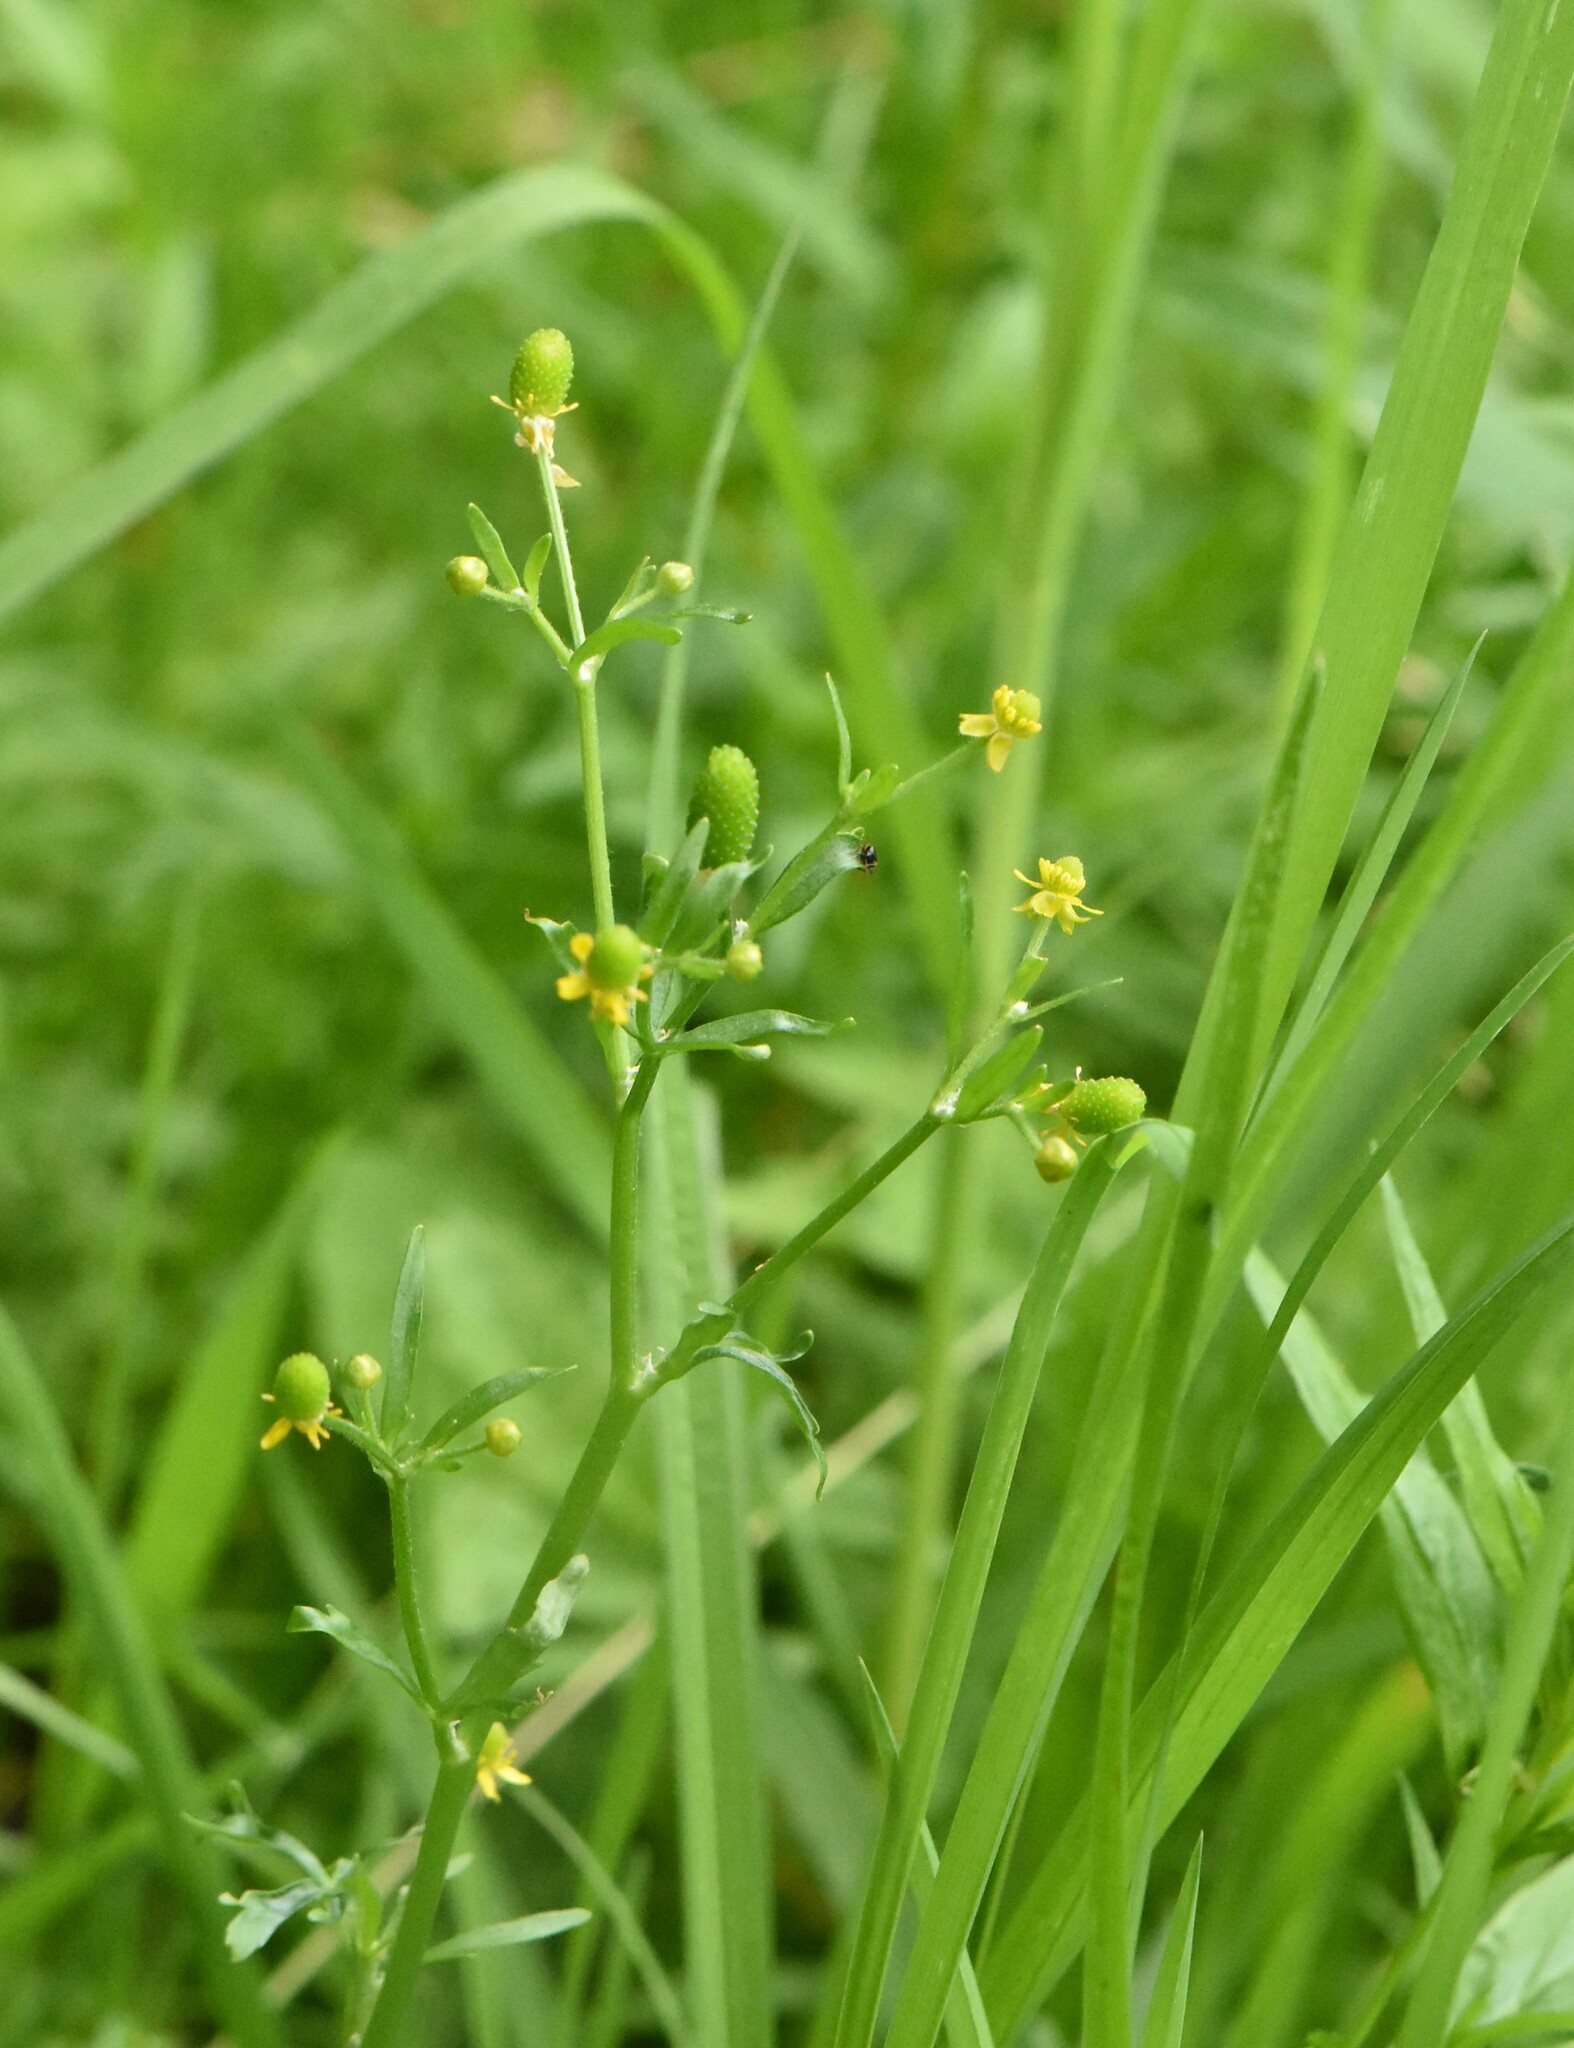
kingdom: Plantae
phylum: Tracheophyta
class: Magnoliopsida
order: Ranunculales
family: Ranunculaceae
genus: Ranunculus
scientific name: Ranunculus sceleratus
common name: Celery-leaved buttercup
